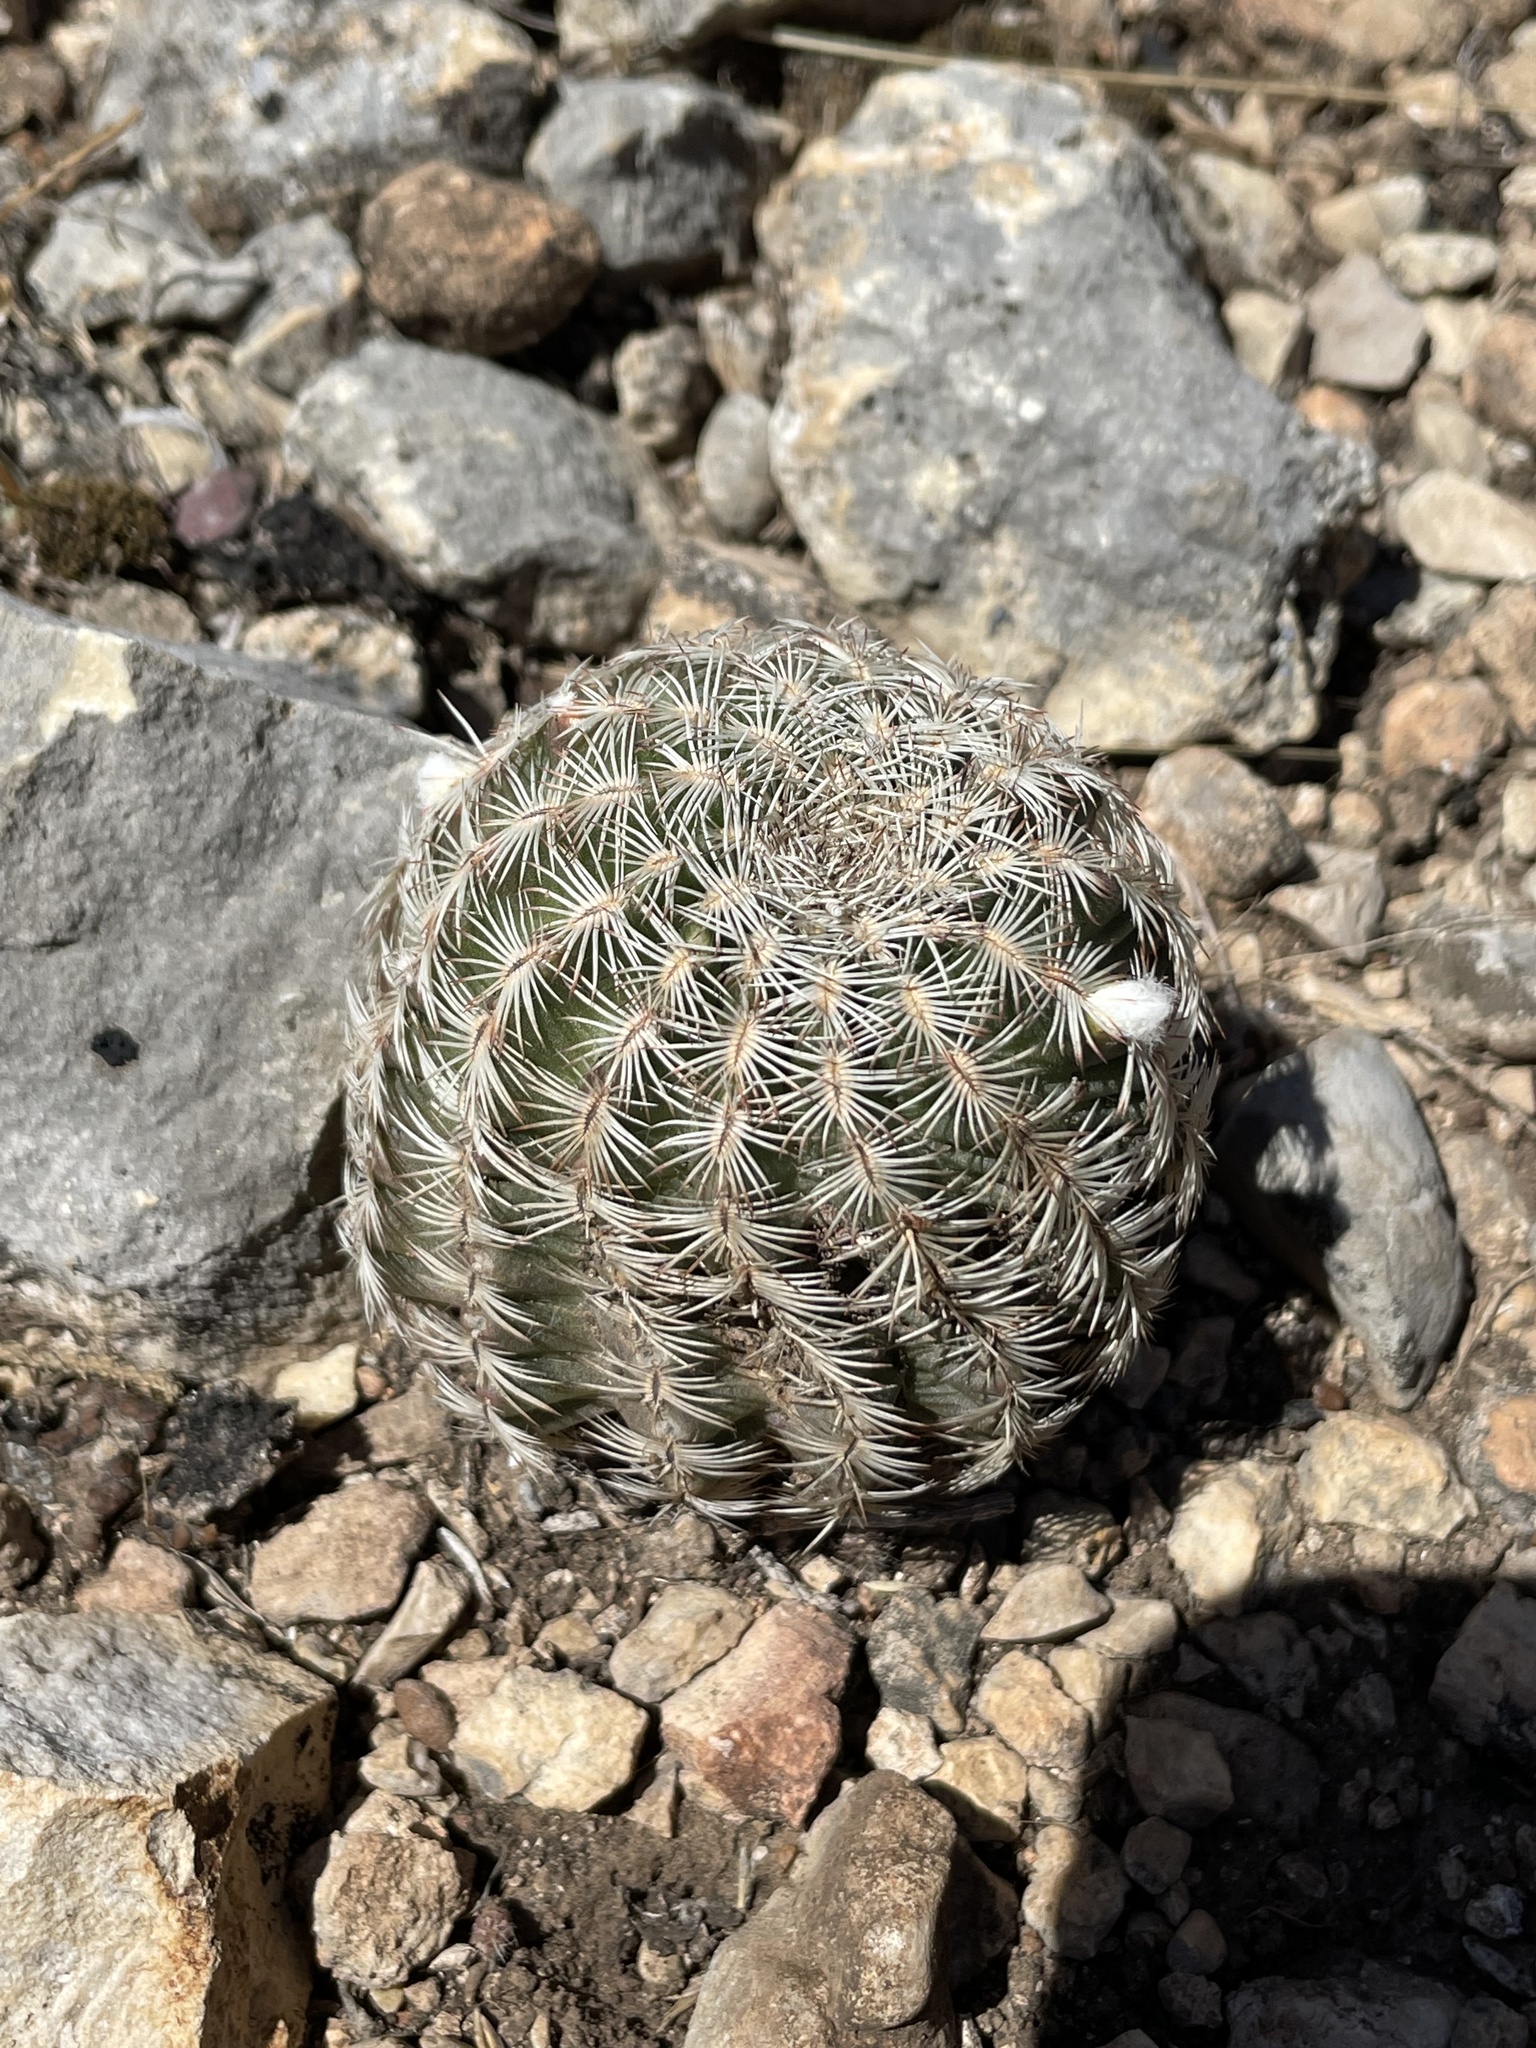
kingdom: Plantae
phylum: Tracheophyta
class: Magnoliopsida
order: Caryophyllales
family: Cactaceae
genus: Echinocereus
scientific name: Echinocereus reichenbachii
